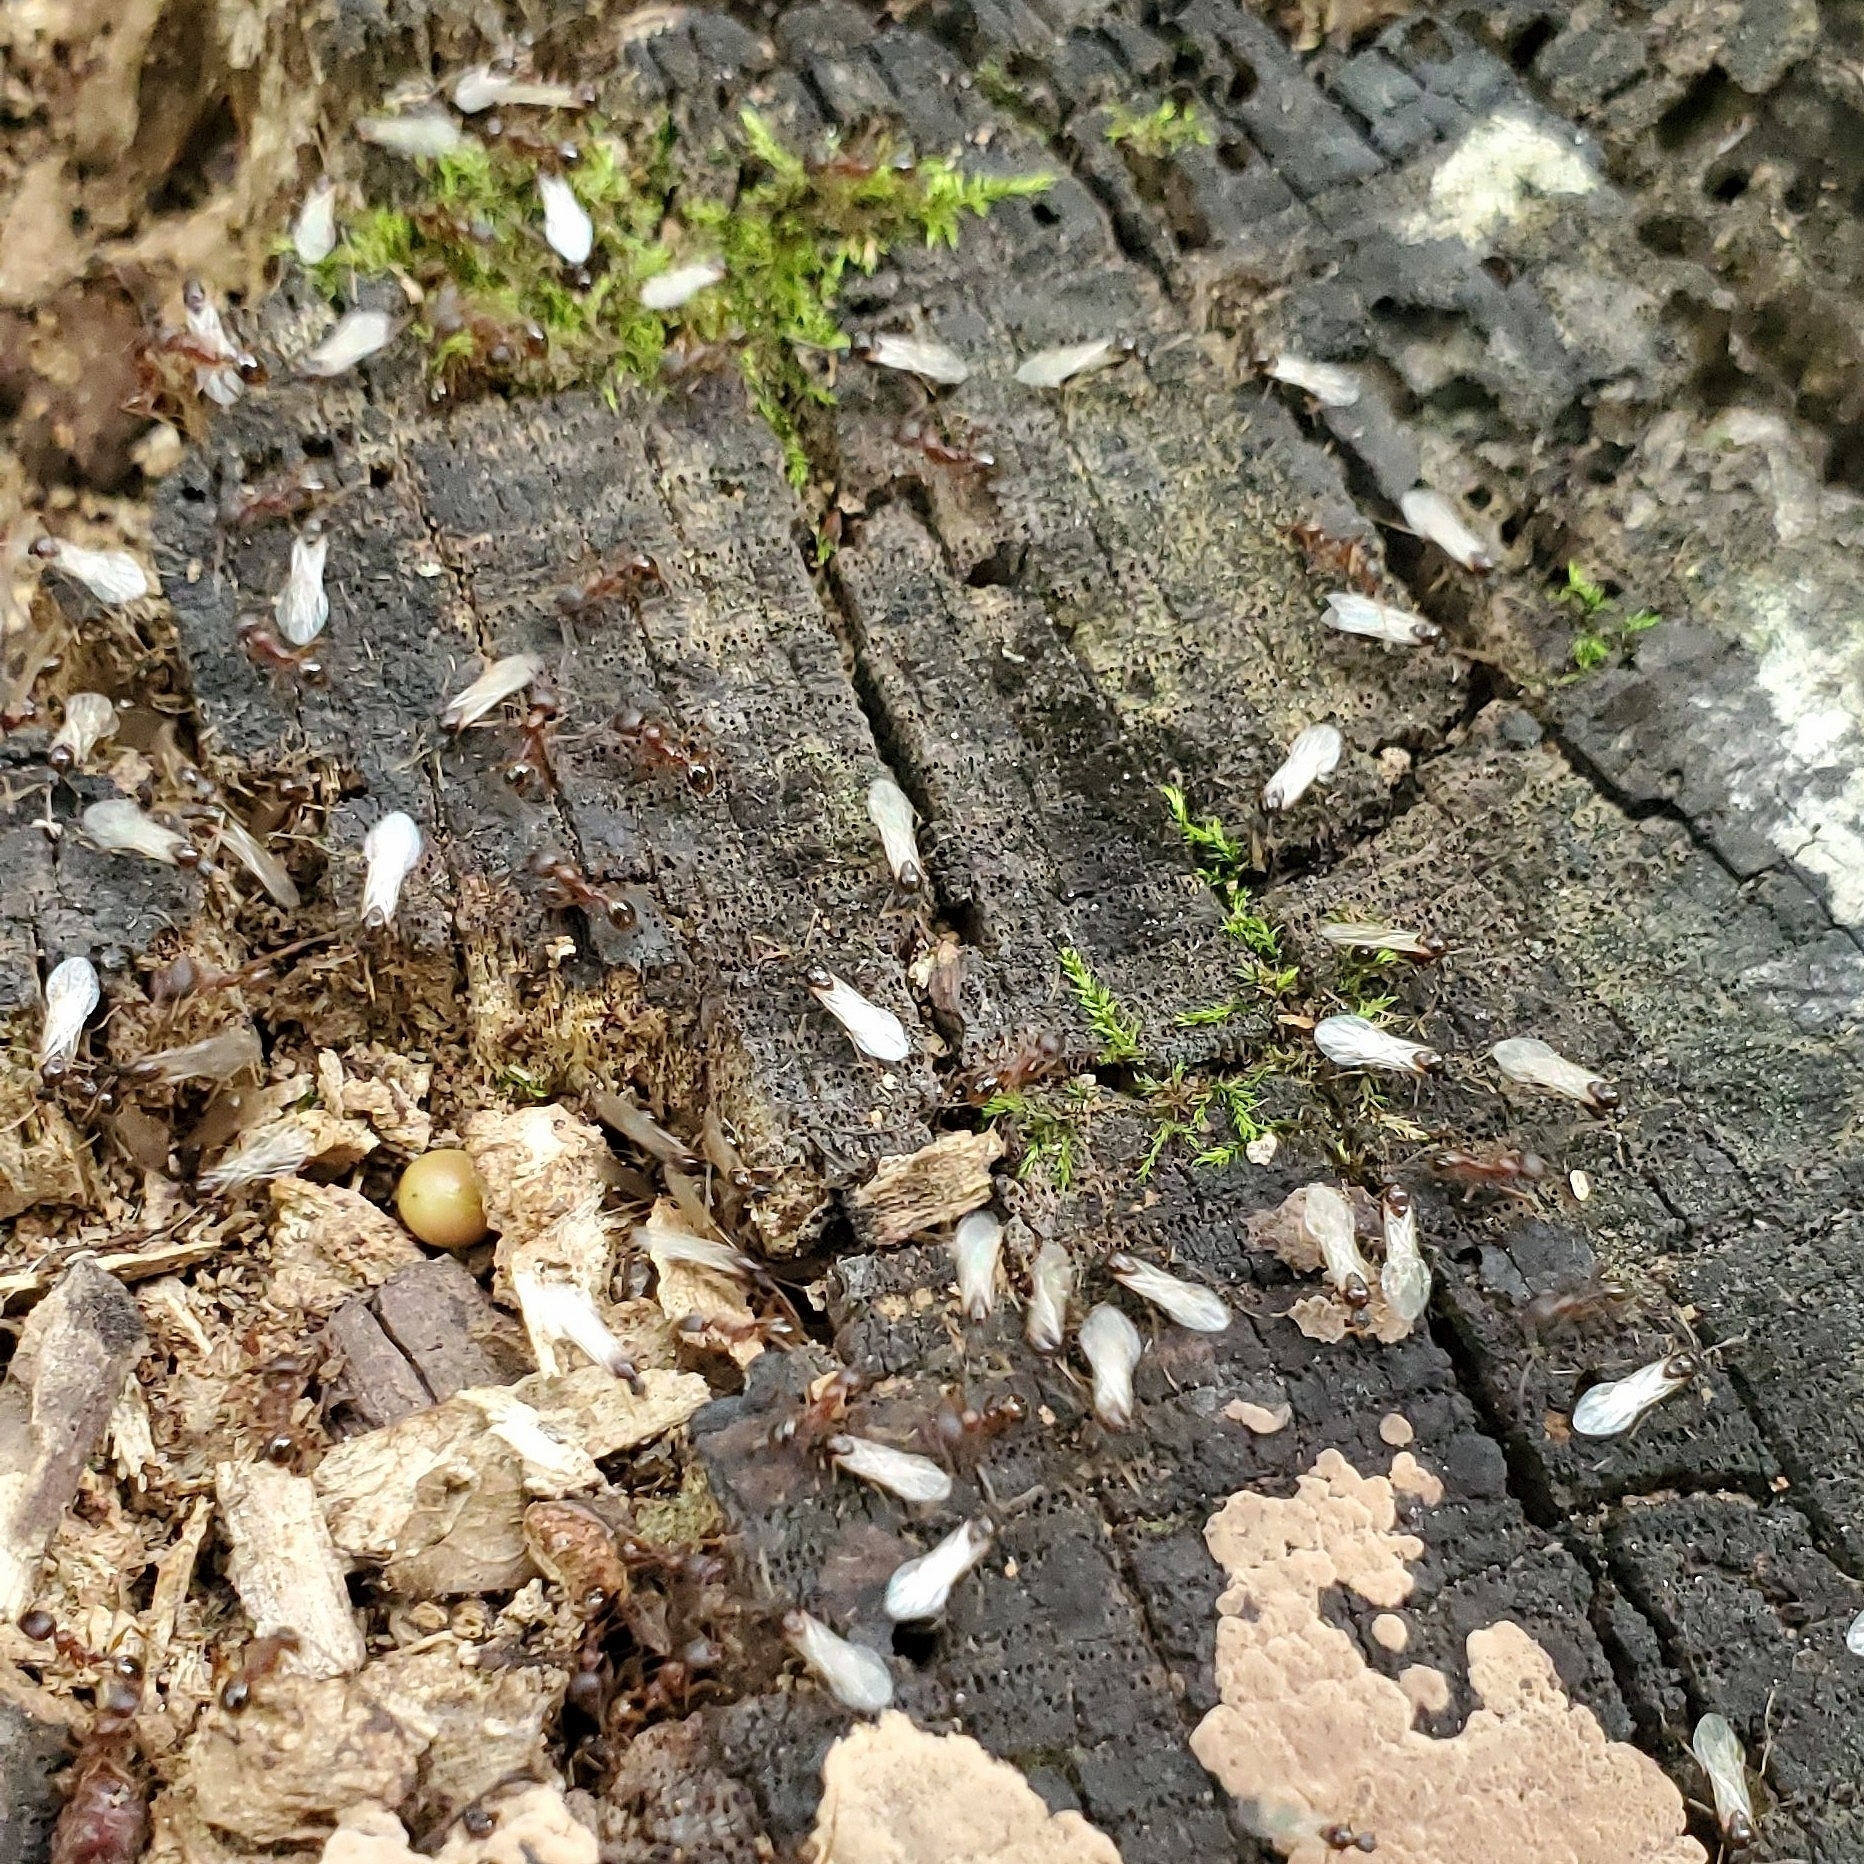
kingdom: Animalia
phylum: Arthropoda
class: Insecta
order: Hymenoptera
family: Formicidae
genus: Aphaenogaster
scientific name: Aphaenogaster rudis
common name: Winnow ant
